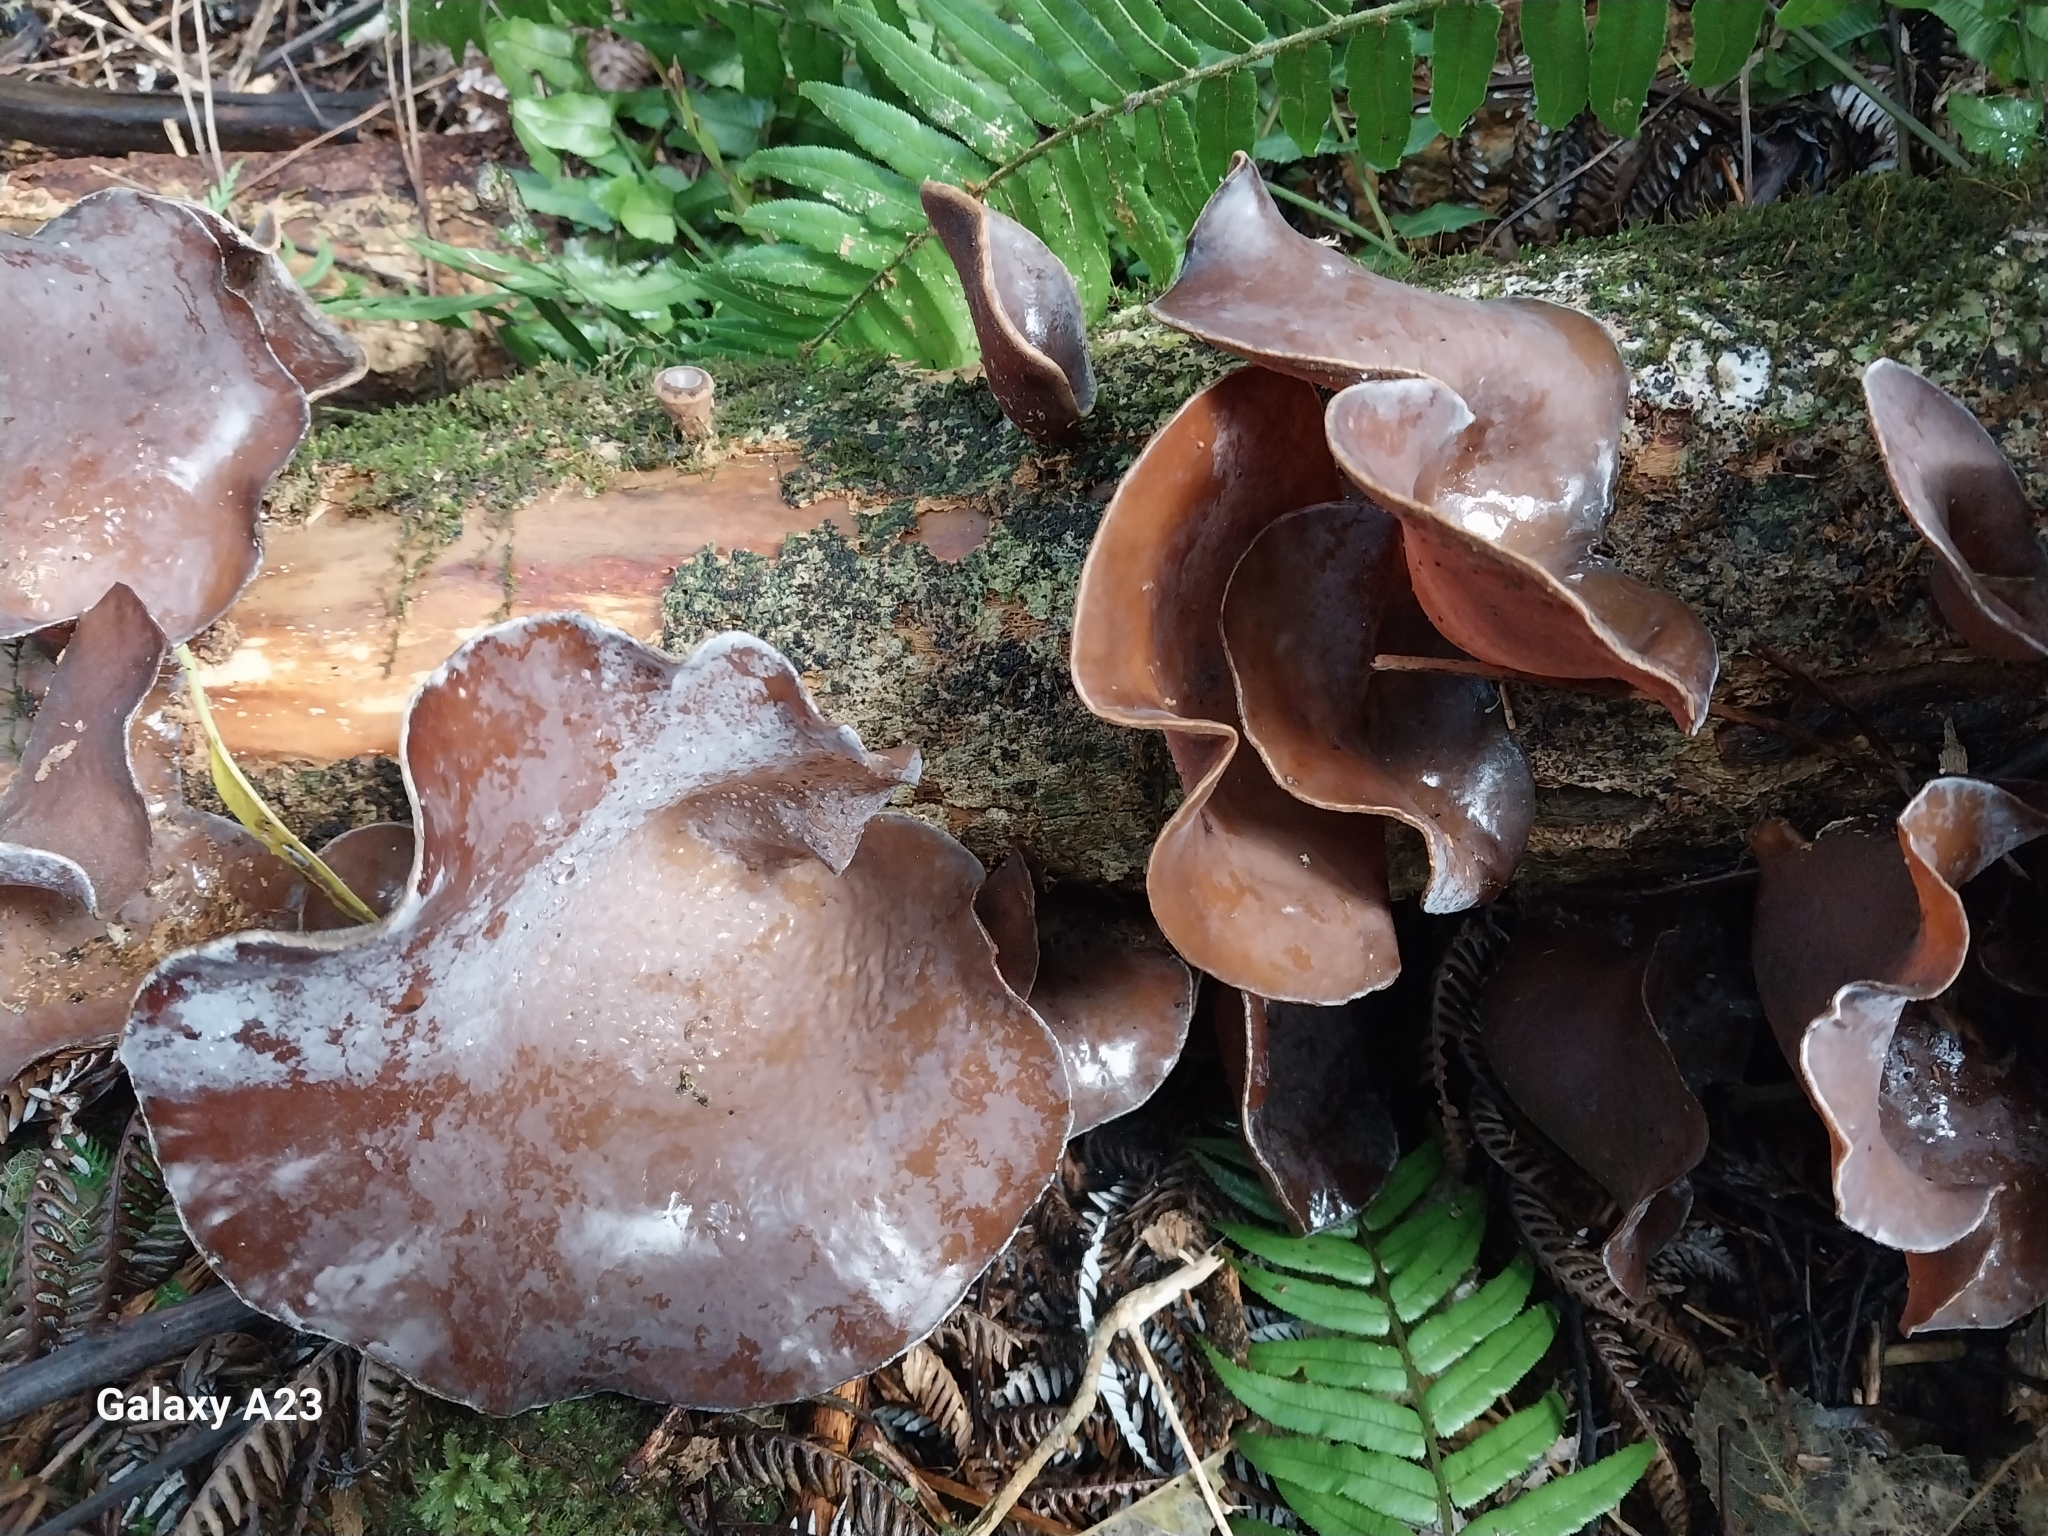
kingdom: Fungi
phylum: Basidiomycota
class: Agaricomycetes
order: Auriculariales
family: Auriculariaceae
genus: Auricularia
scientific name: Auricularia cornea
